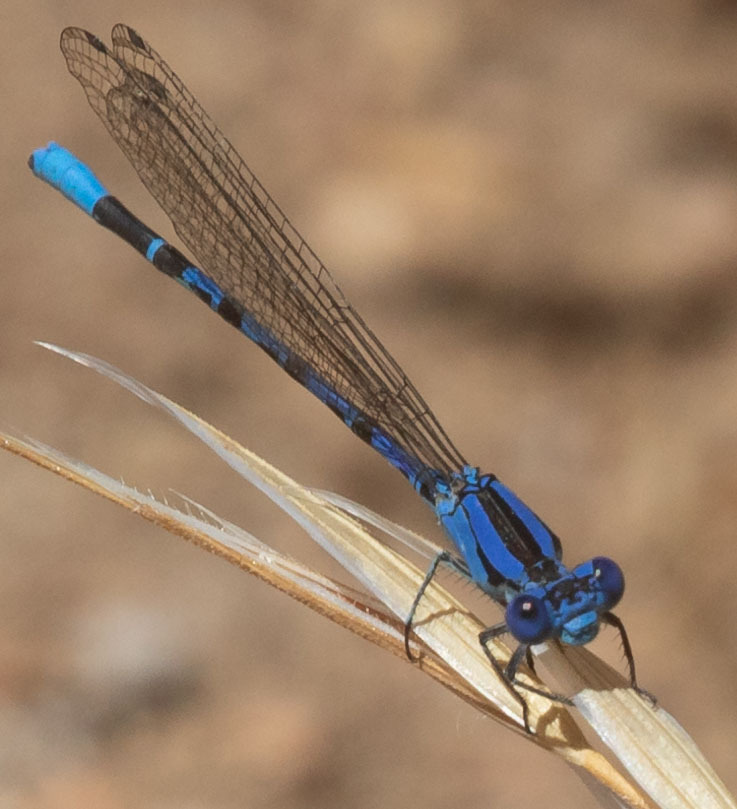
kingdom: Animalia
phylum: Arthropoda
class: Insecta
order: Odonata
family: Coenagrionidae
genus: Argia
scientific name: Argia vivida
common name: Vivid dancer
